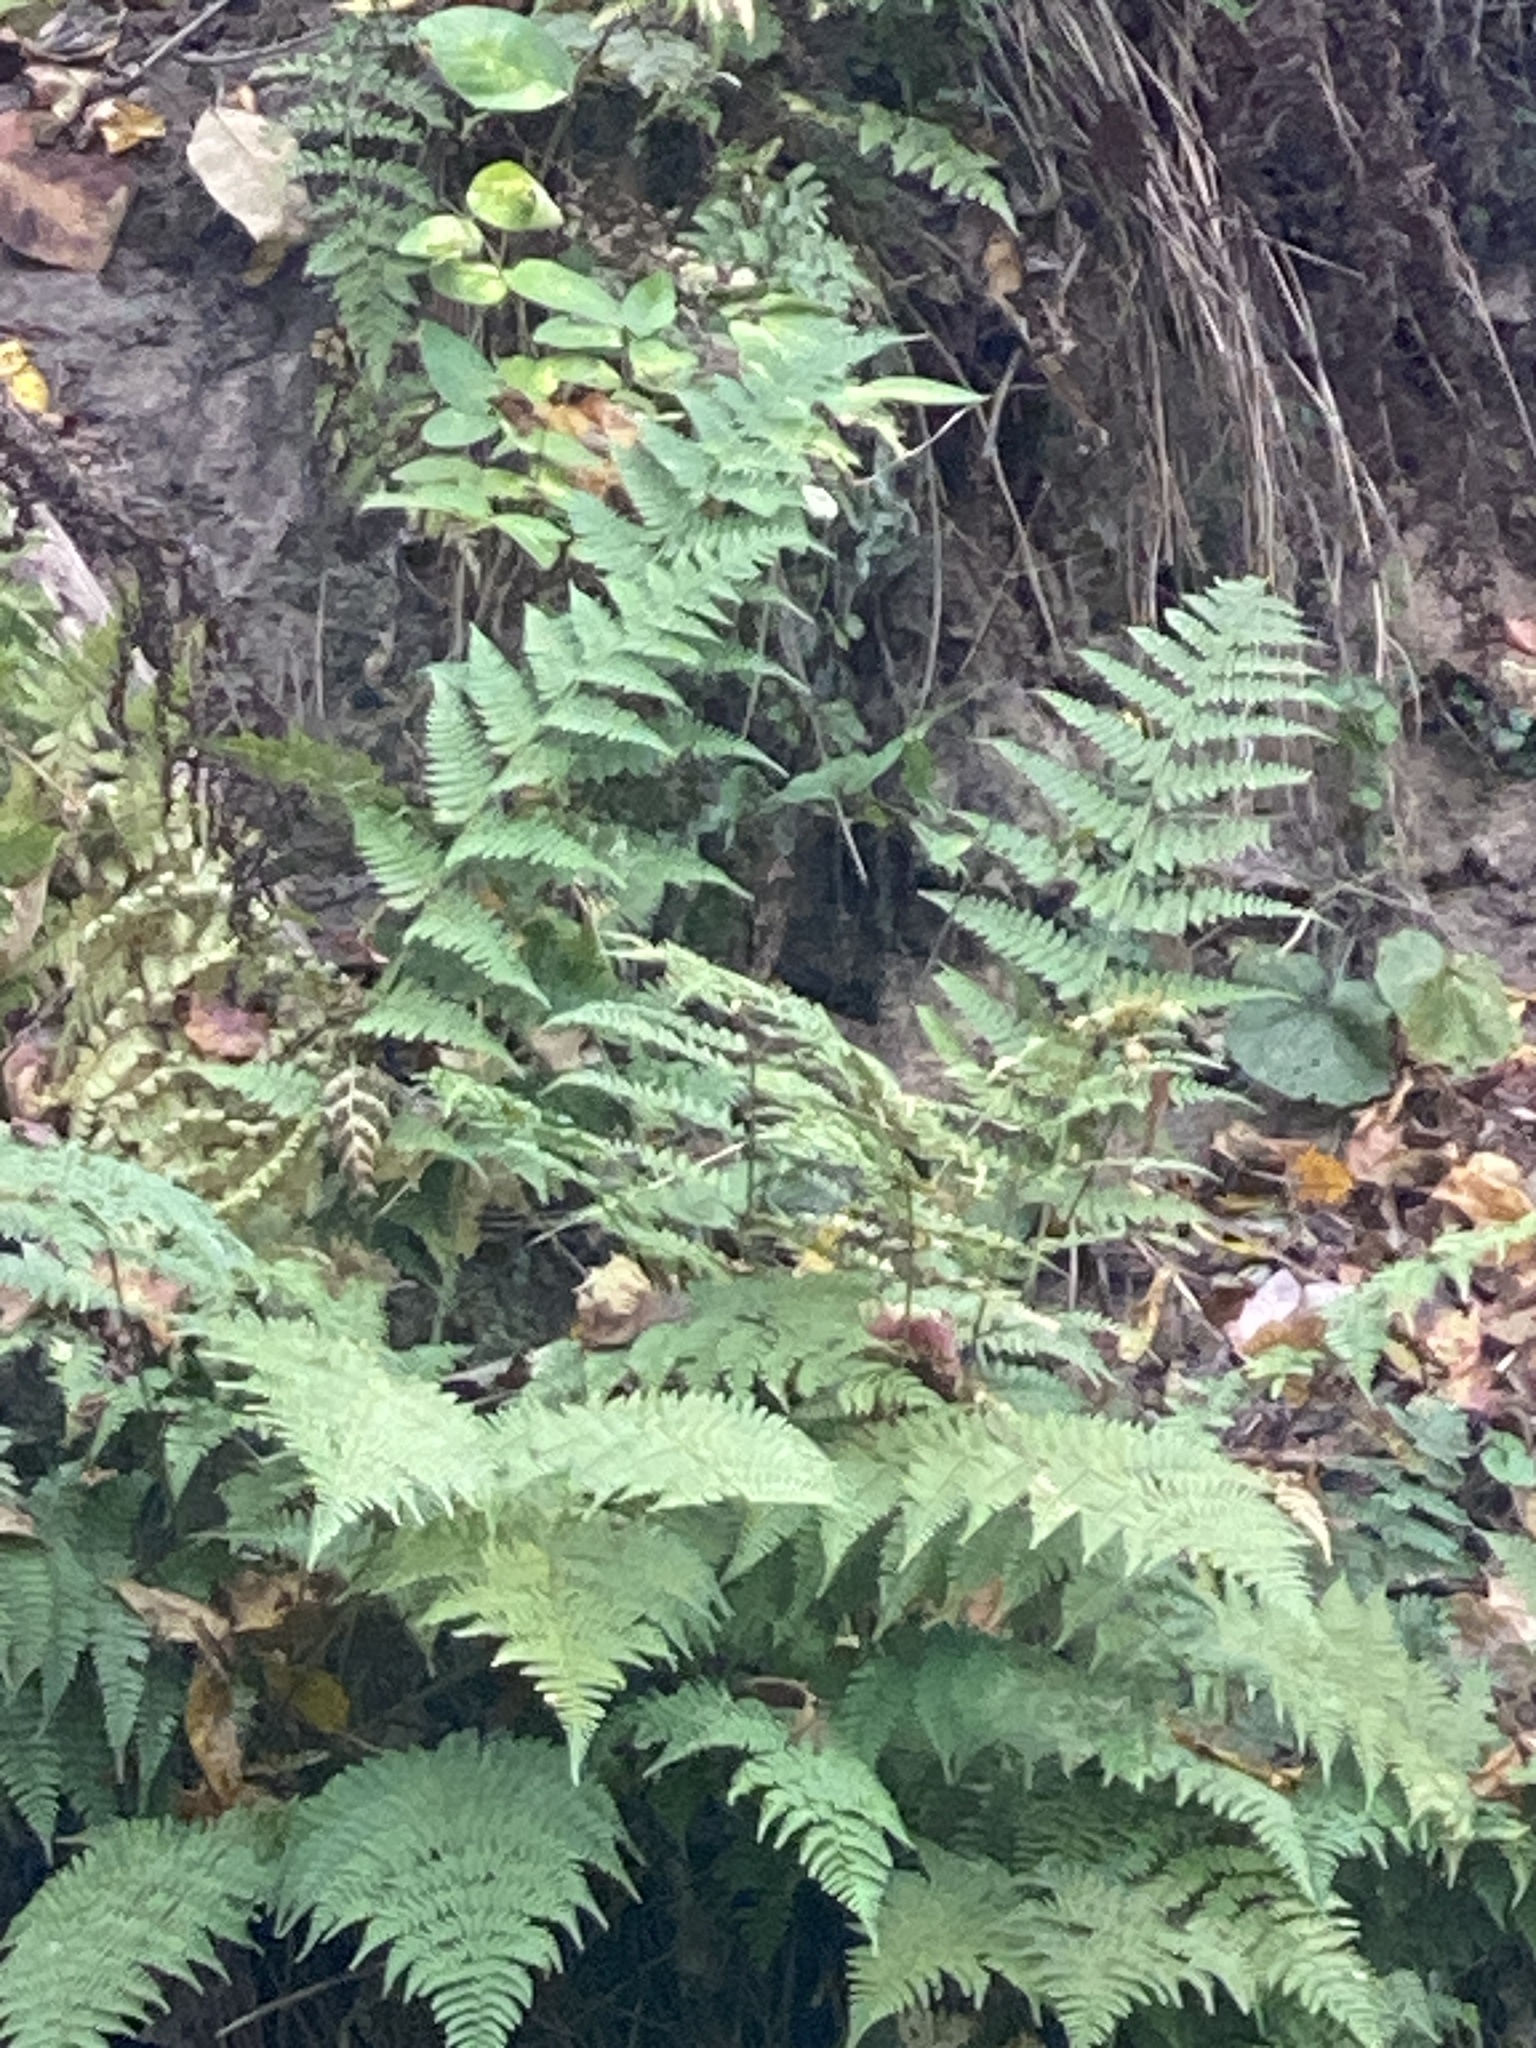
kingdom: Plantae
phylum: Tracheophyta
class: Polypodiopsida
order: Polypodiales
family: Dryopteridaceae
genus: Dryopteris
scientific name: Dryopteris
